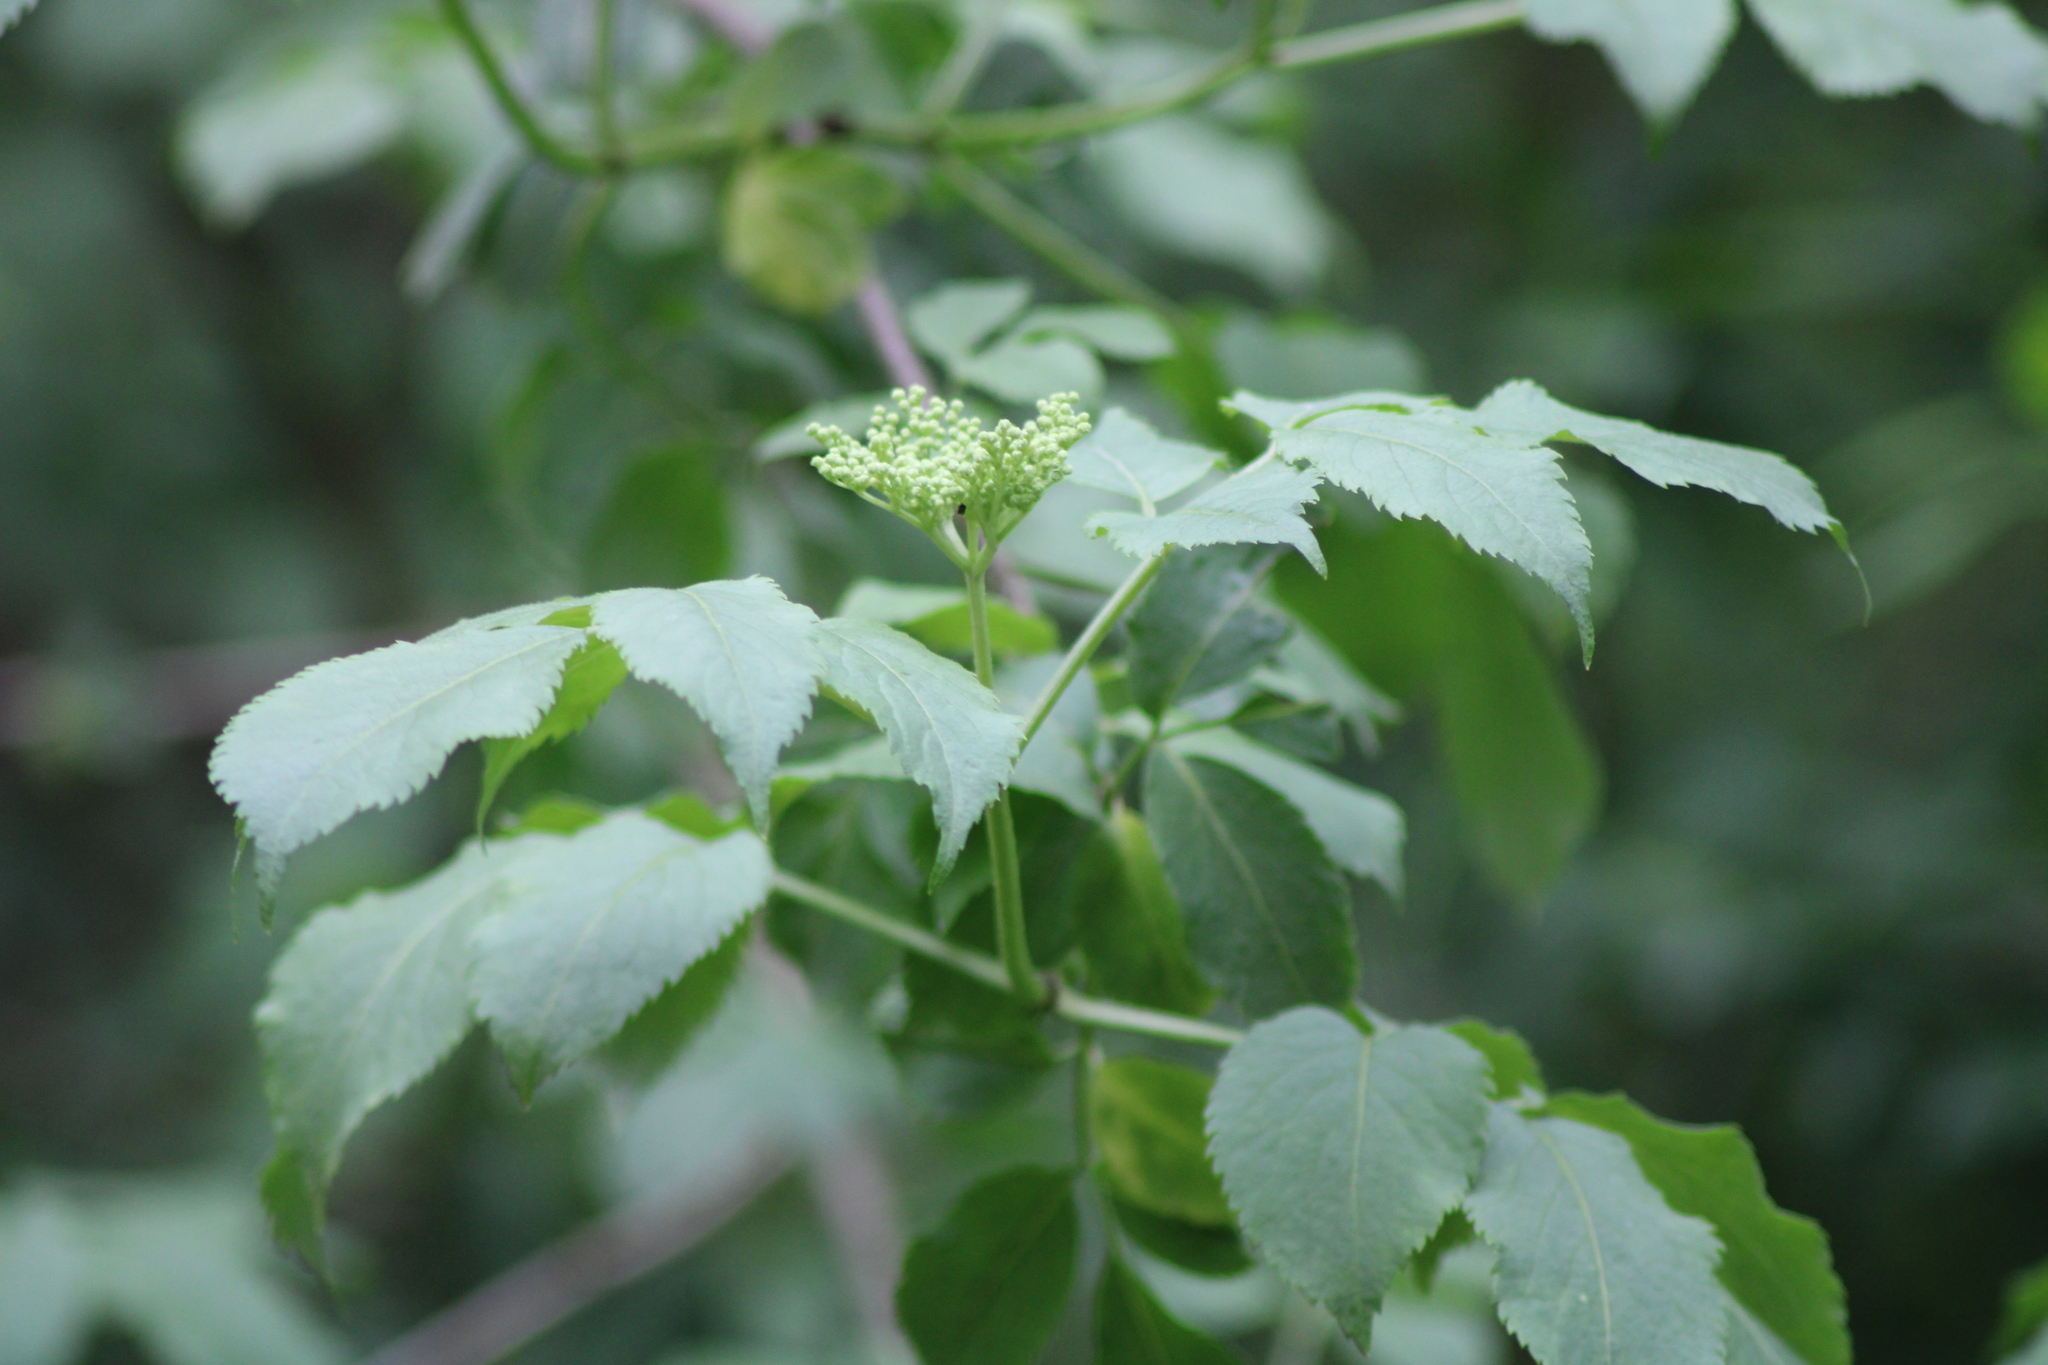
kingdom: Plantae
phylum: Tracheophyta
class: Magnoliopsida
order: Dipsacales
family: Viburnaceae
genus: Sambucus
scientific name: Sambucus nigra
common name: Elder
